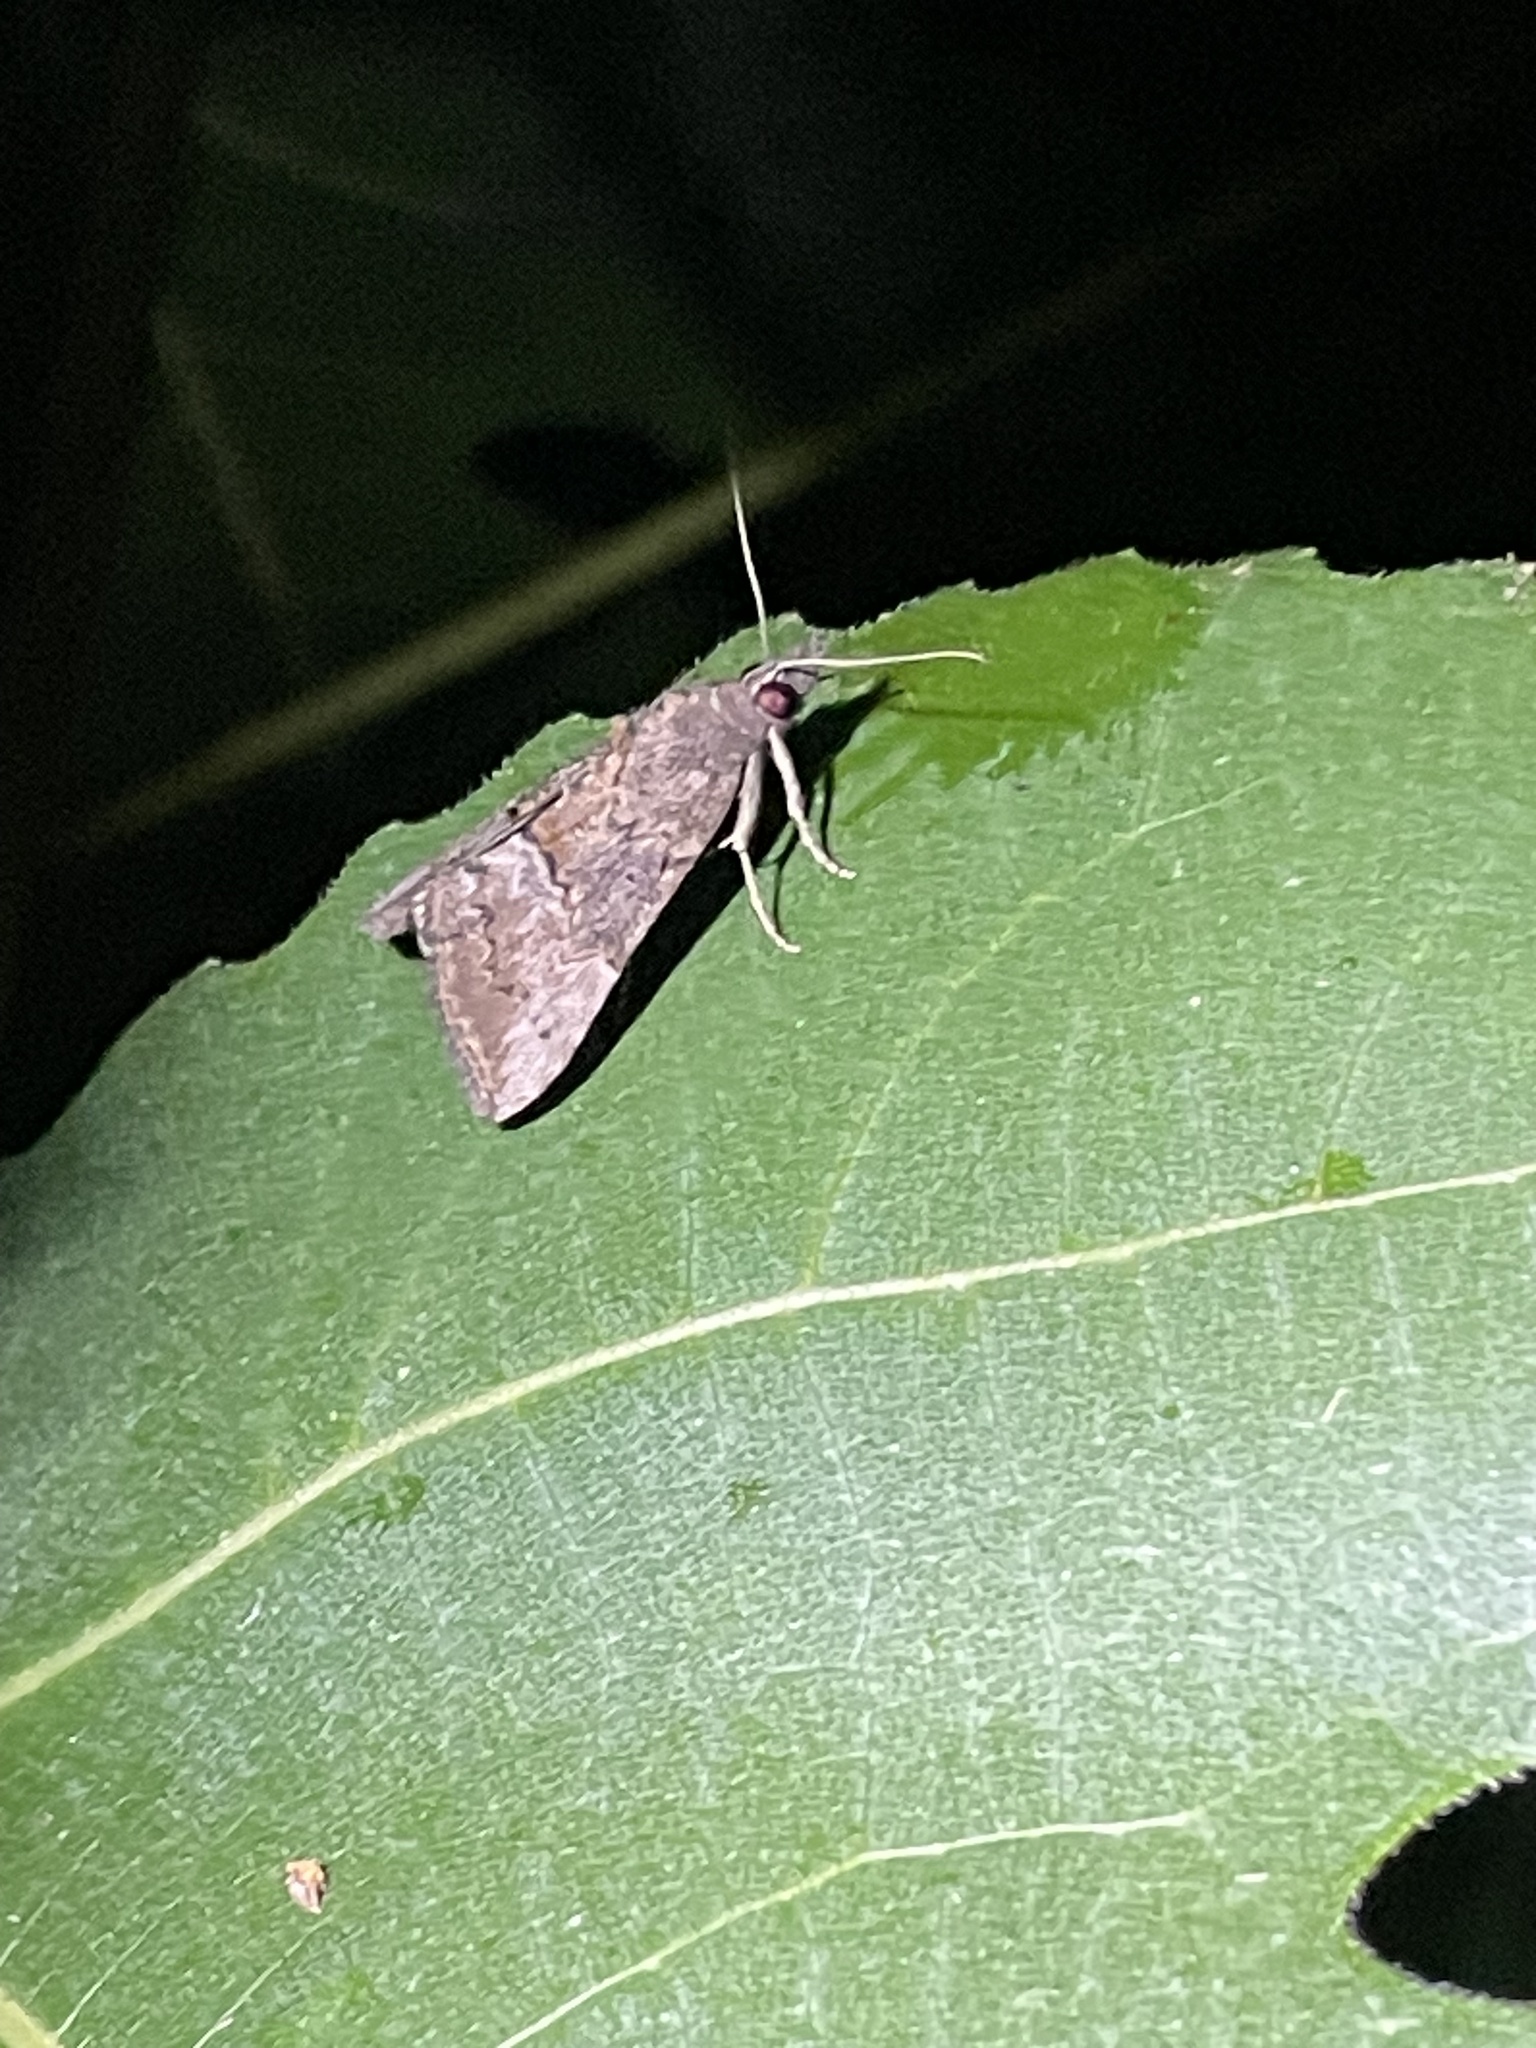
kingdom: Animalia
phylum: Arthropoda
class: Insecta
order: Lepidoptera
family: Erebidae
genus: Hypena
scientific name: Hypena scabra
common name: Green cloverworm
